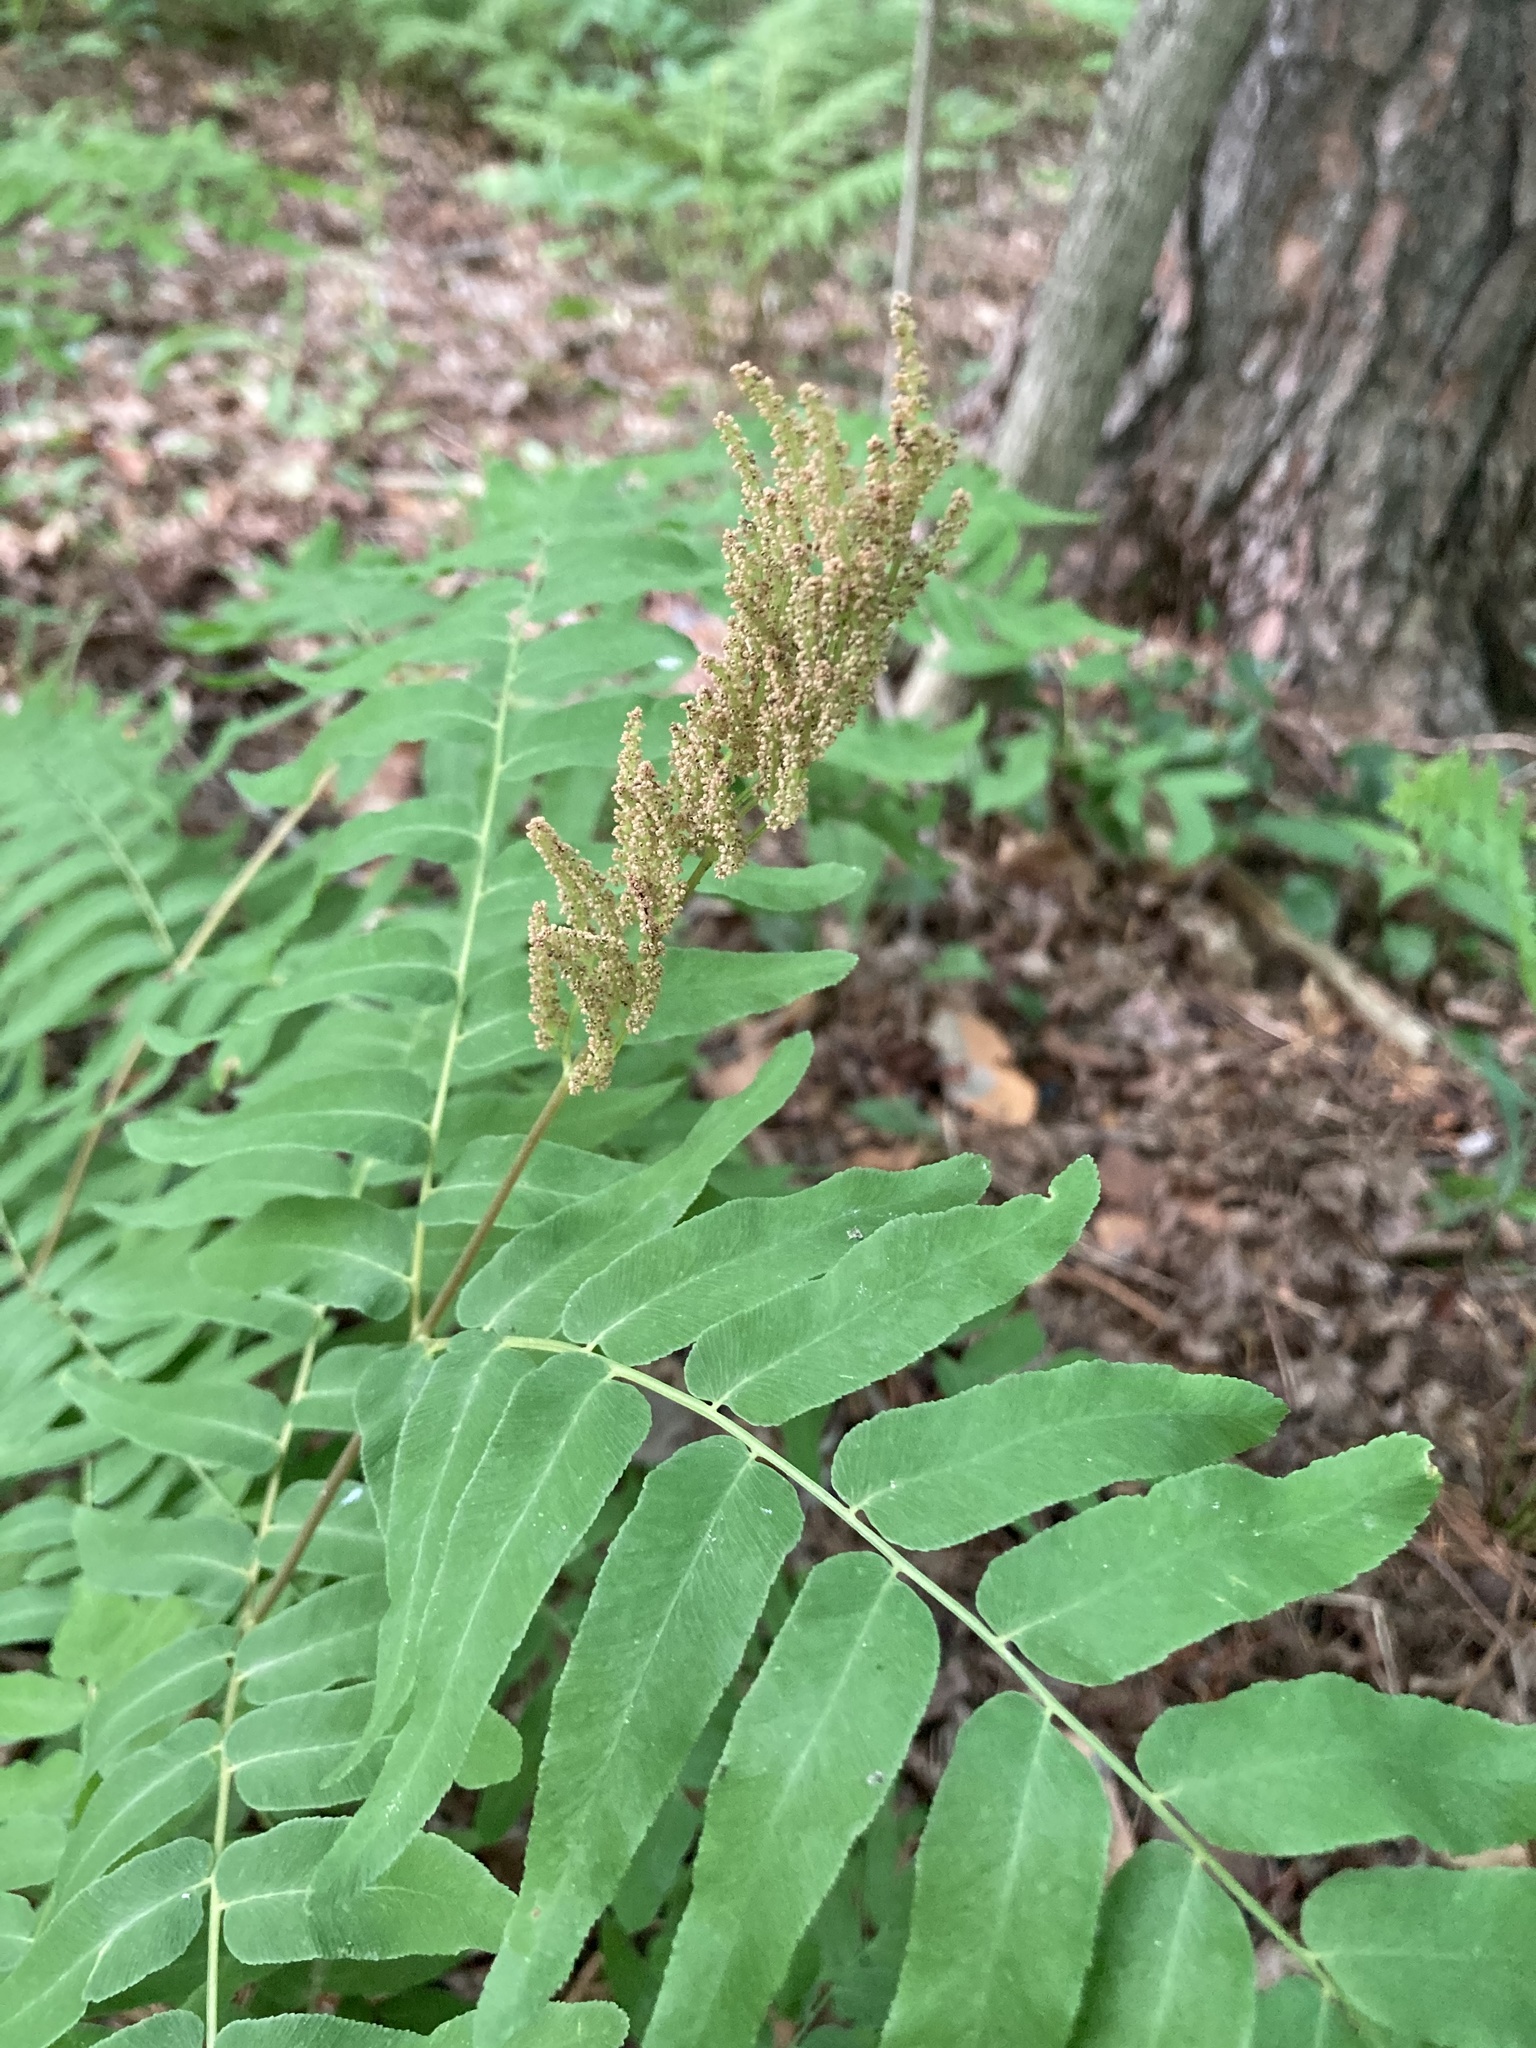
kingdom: Plantae
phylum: Tracheophyta
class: Polypodiopsida
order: Osmundales
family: Osmundaceae
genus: Osmunda
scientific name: Osmunda spectabilis
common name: American royal fern
